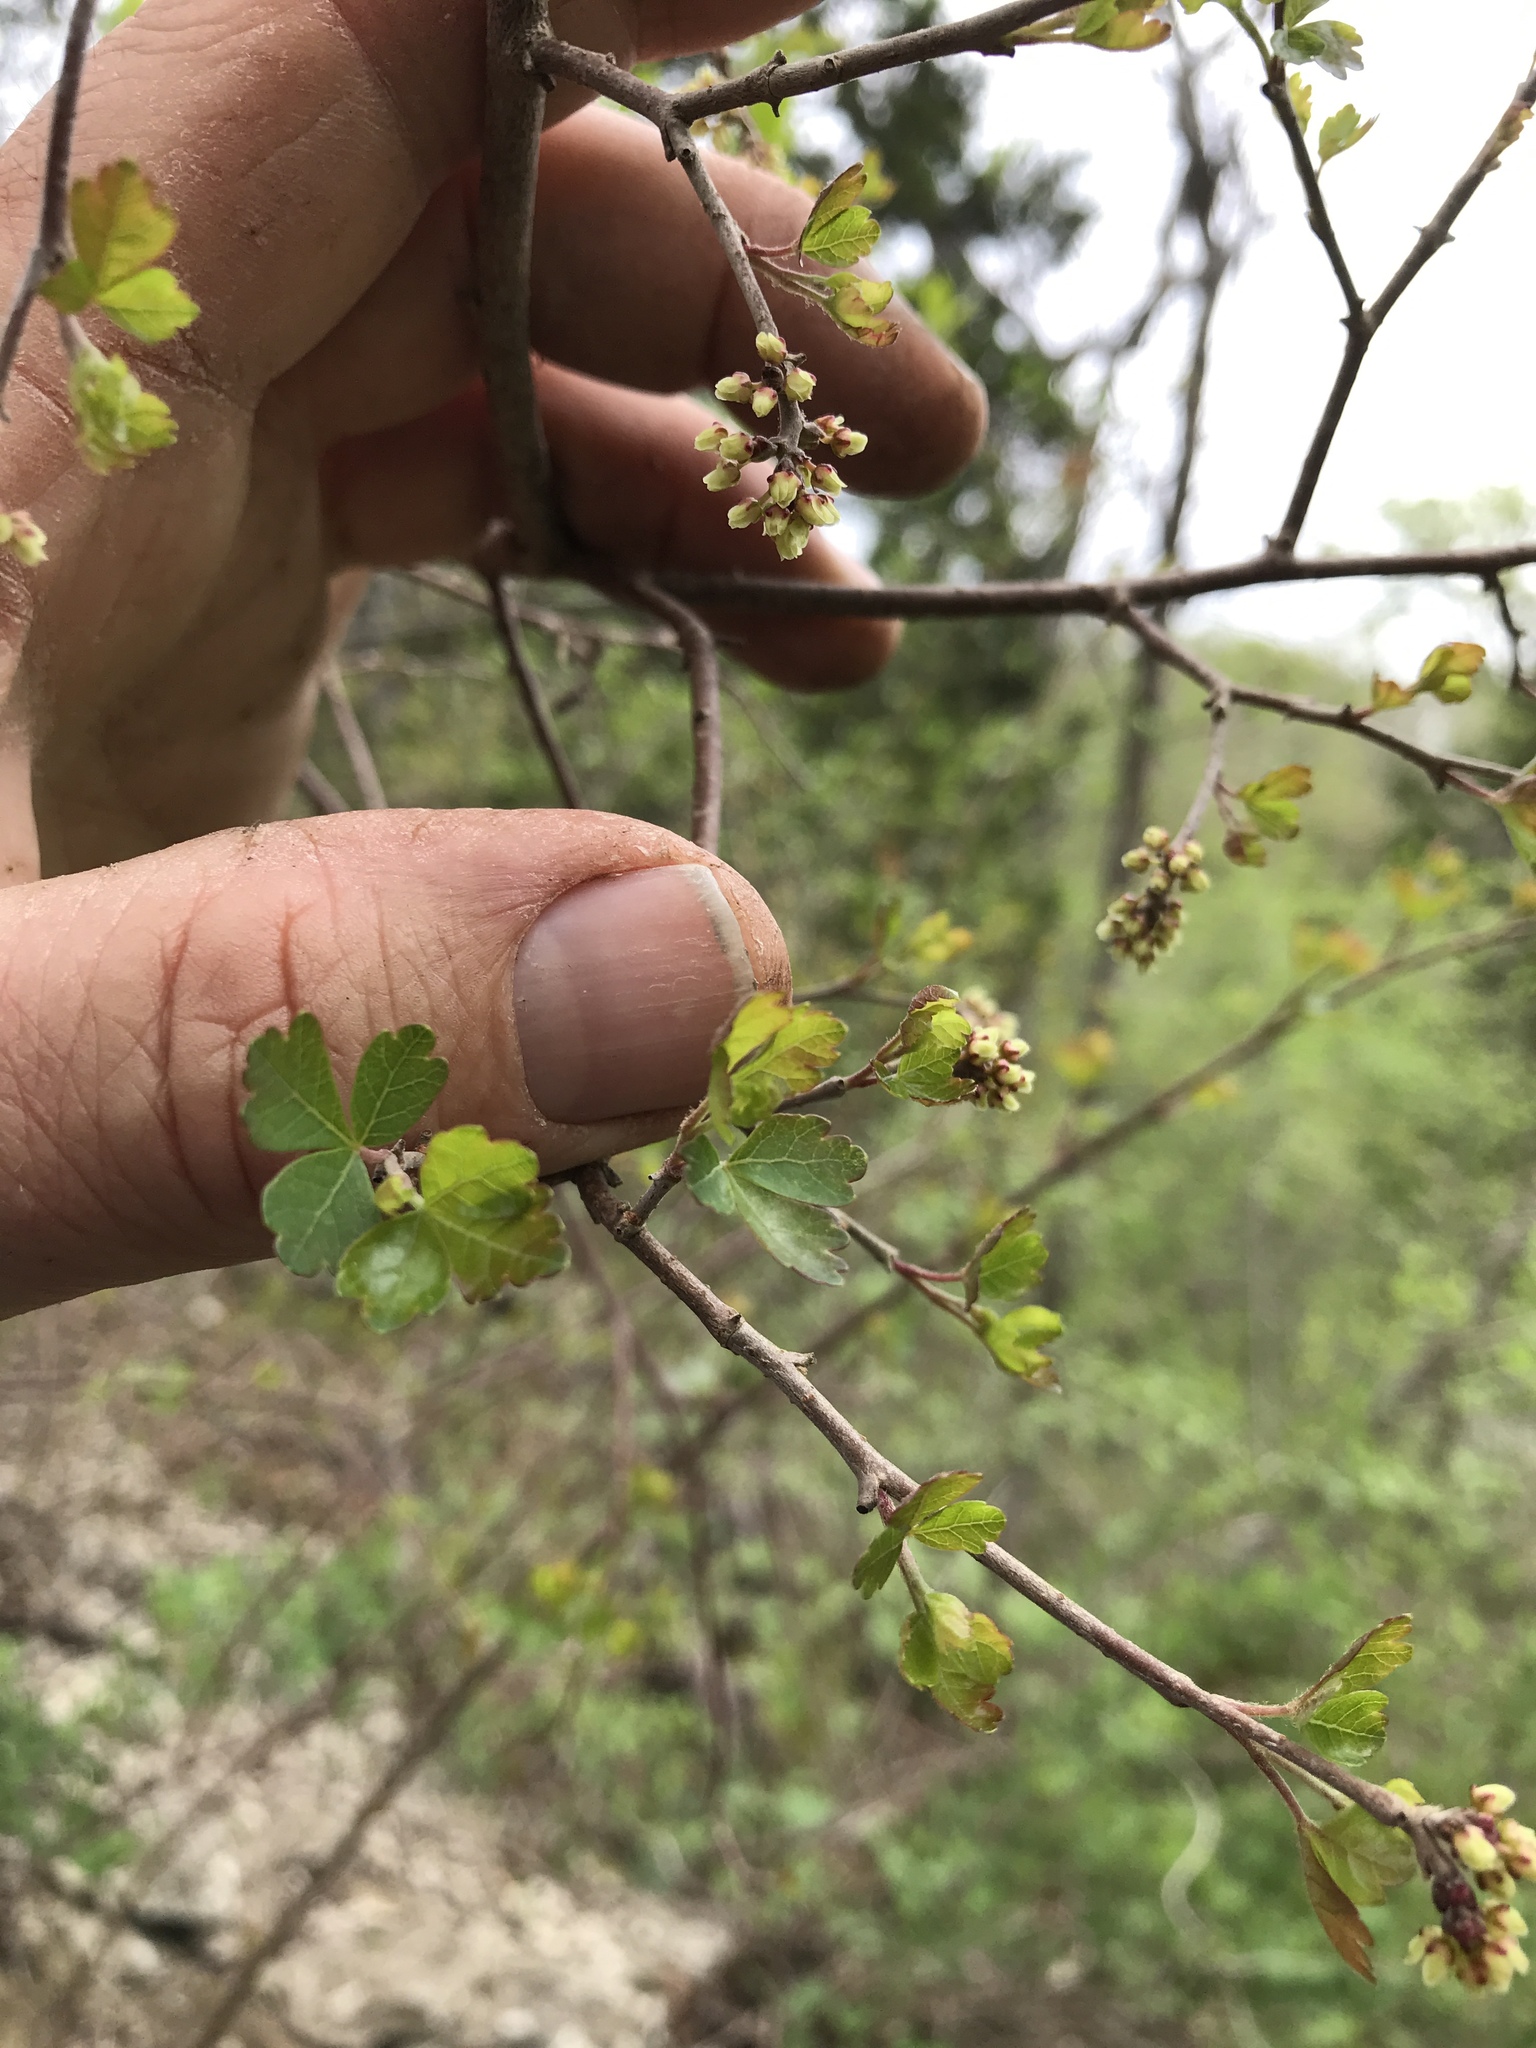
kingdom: Plantae
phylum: Tracheophyta
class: Magnoliopsida
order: Sapindales
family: Anacardiaceae
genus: Rhus
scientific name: Rhus aromatica
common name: Aromatic sumac
